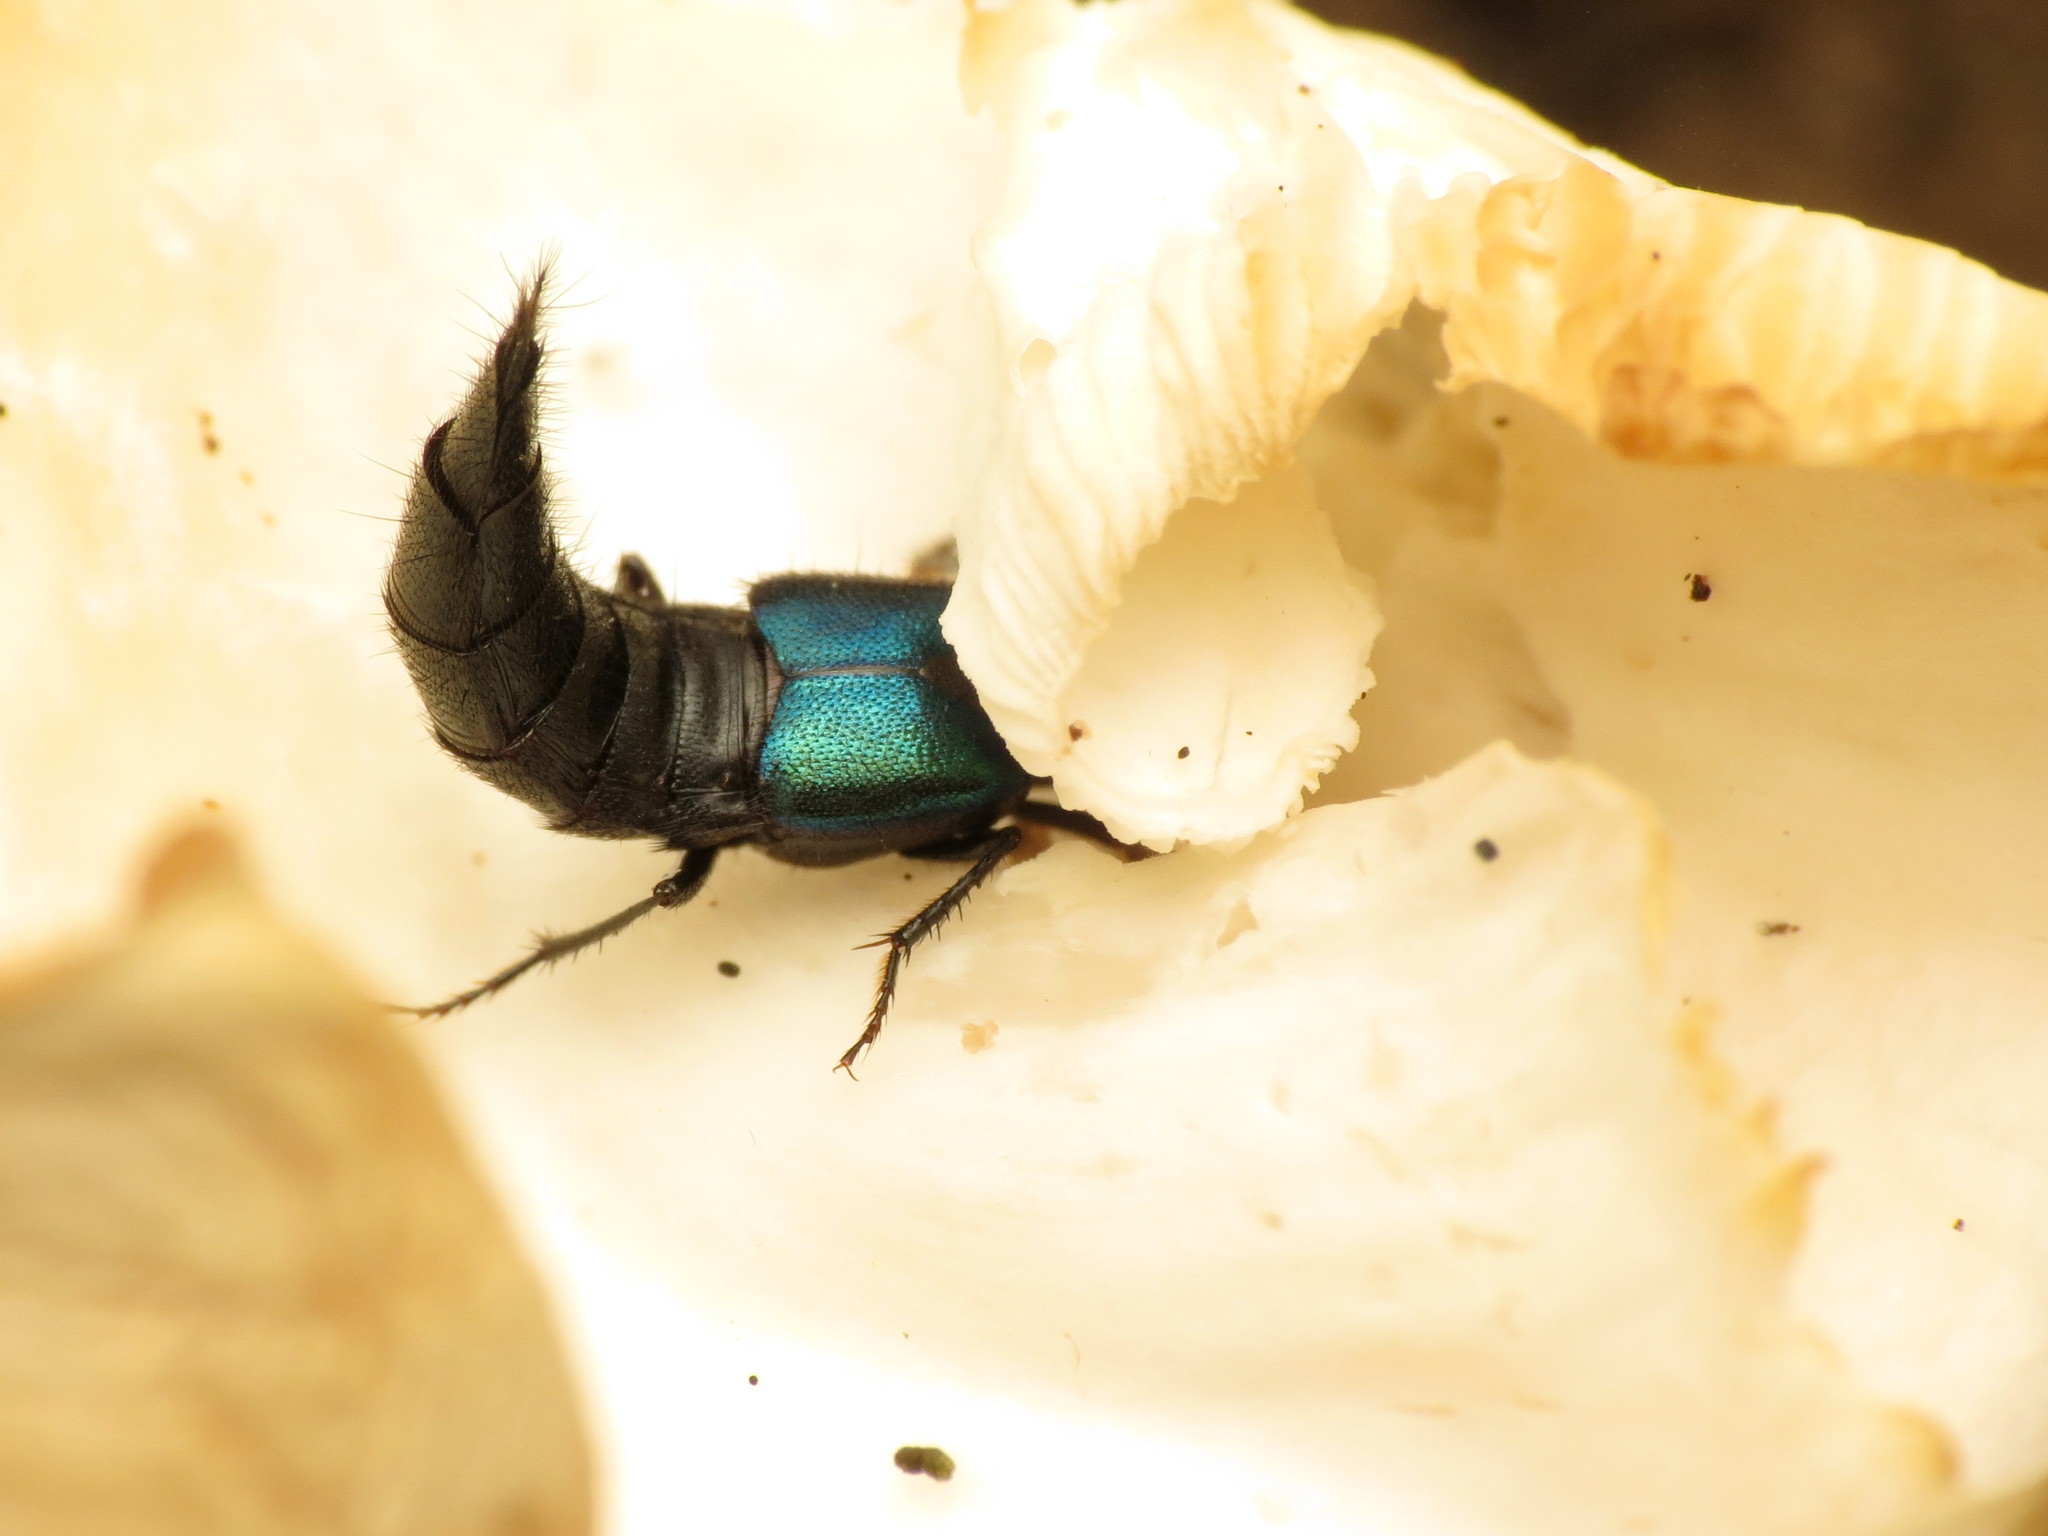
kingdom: Animalia
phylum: Arthropoda
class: Insecta
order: Coleoptera
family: Staphylinidae
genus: Philonthus
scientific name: Philonthus caeruleipennis
